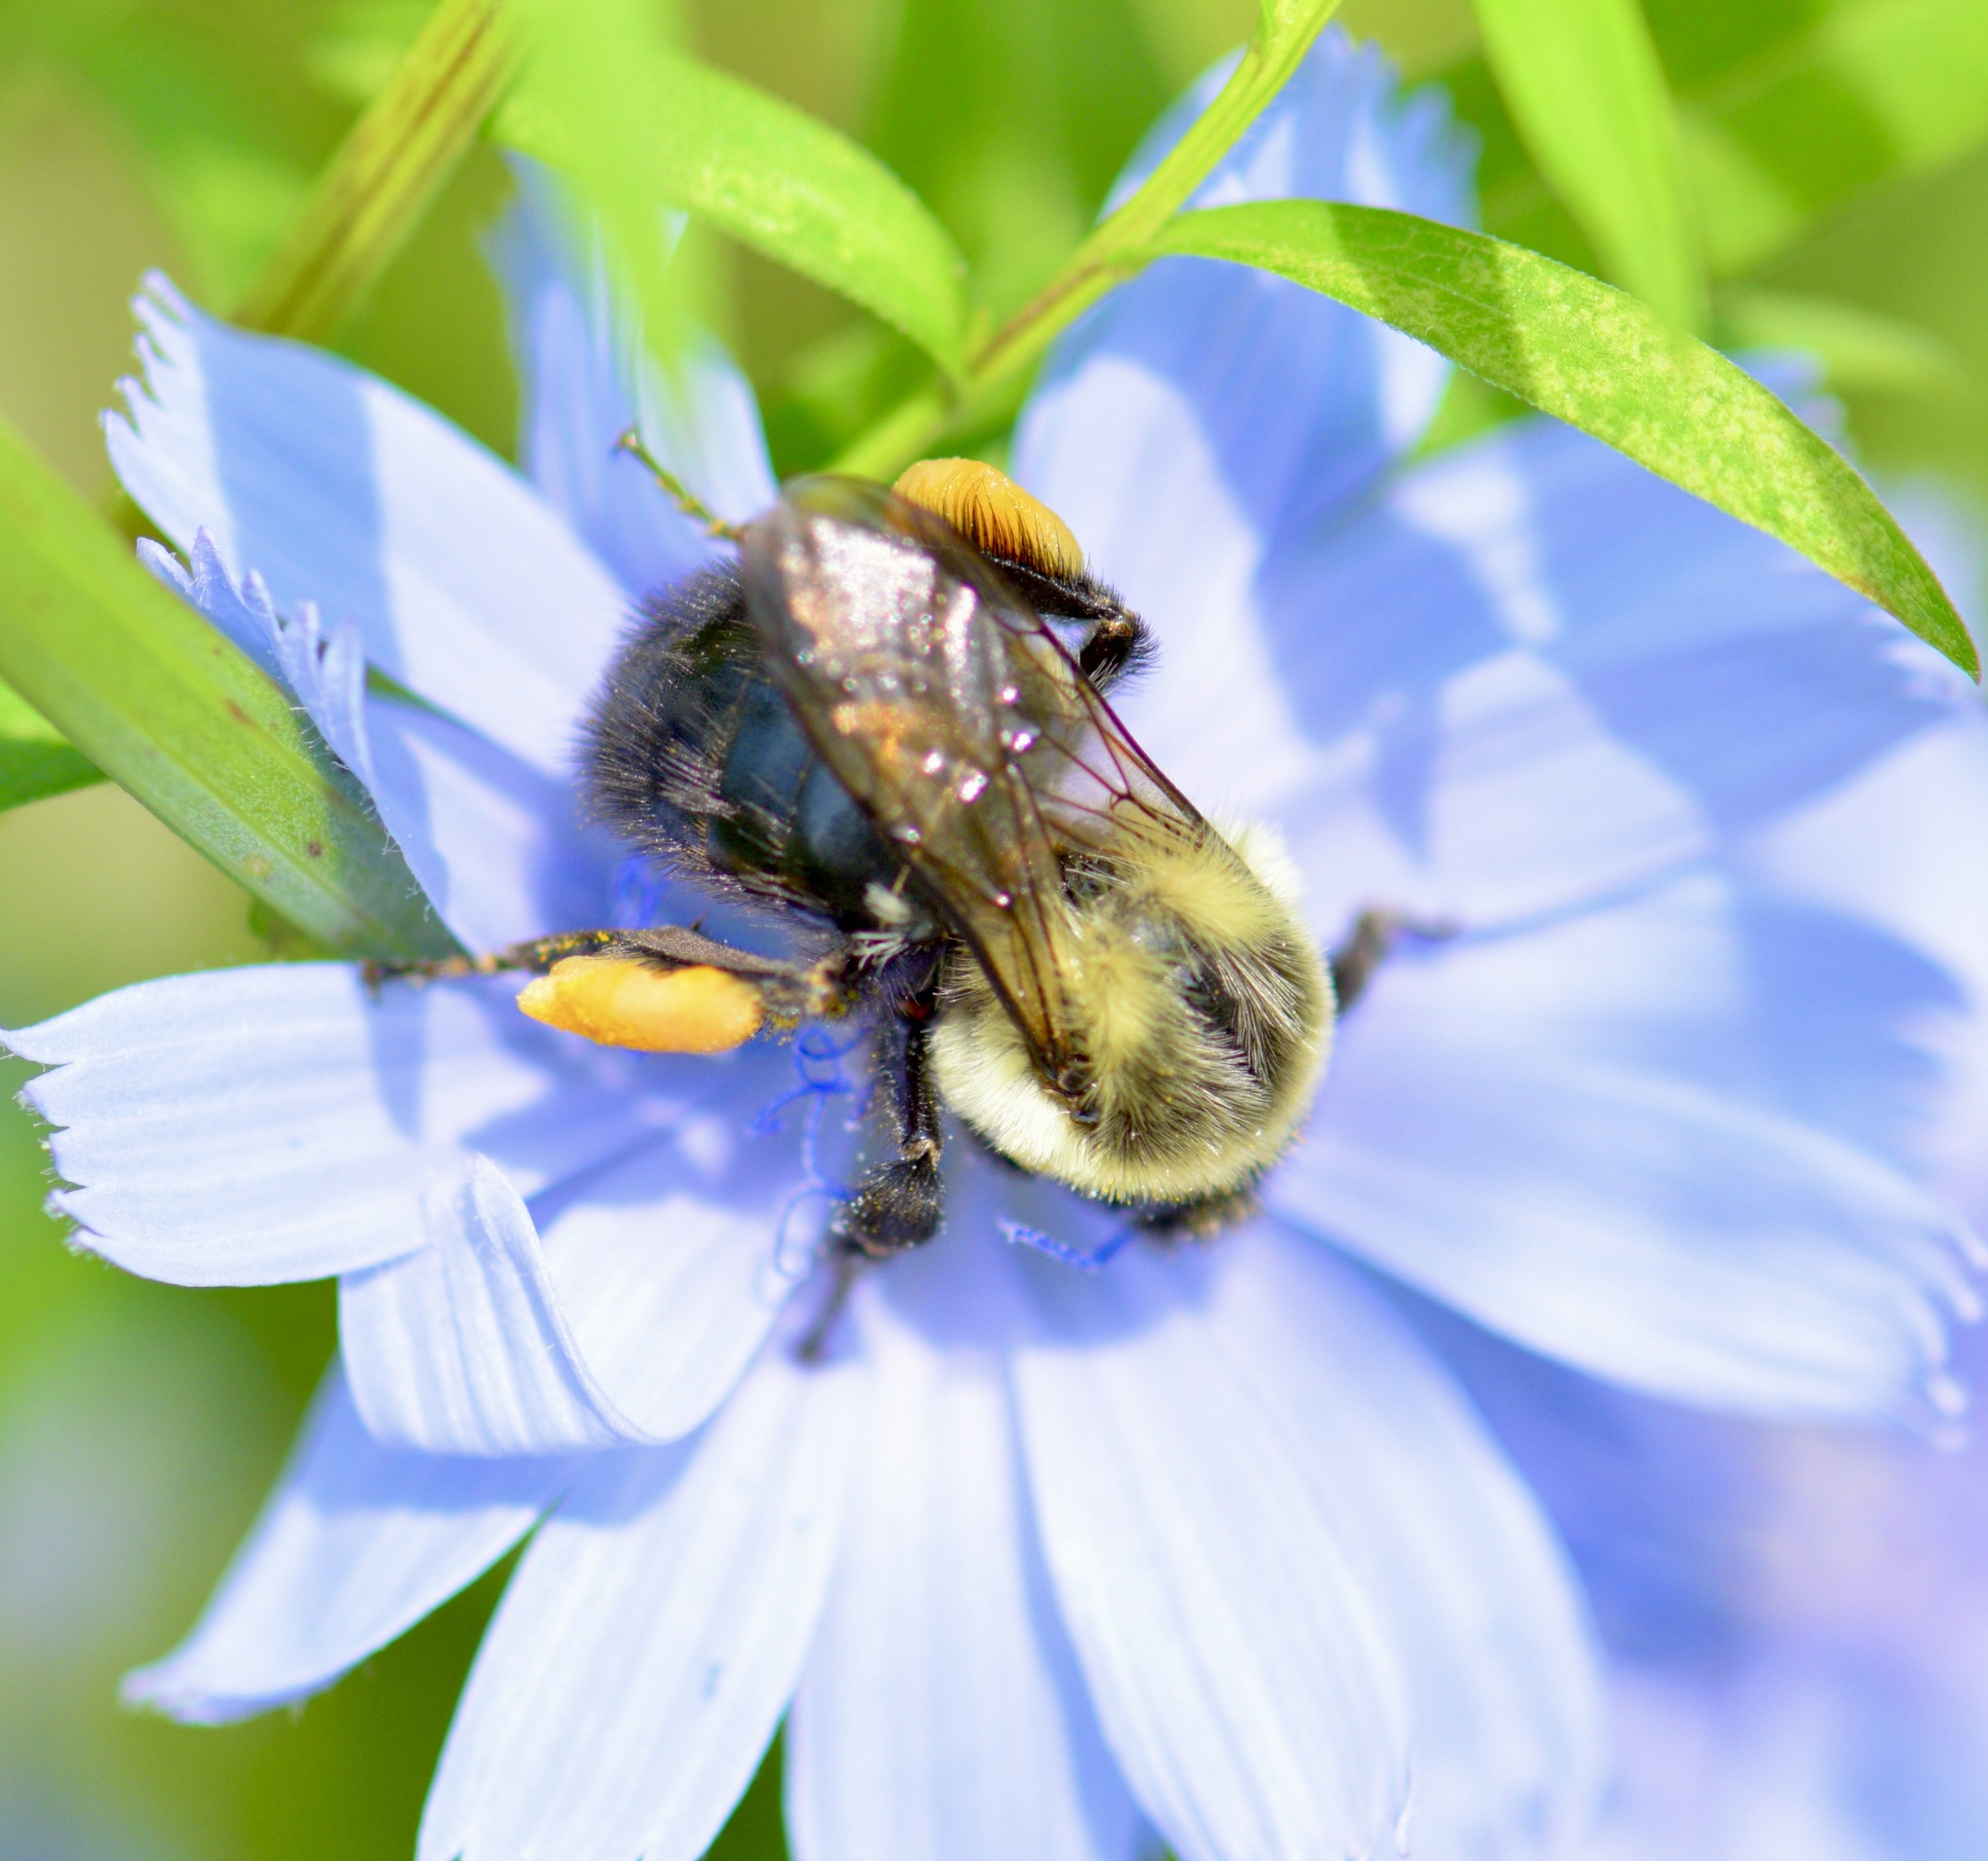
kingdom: Animalia
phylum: Arthropoda
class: Insecta
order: Hymenoptera
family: Apidae
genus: Bombus
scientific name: Bombus impatiens
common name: Common eastern bumble bee
